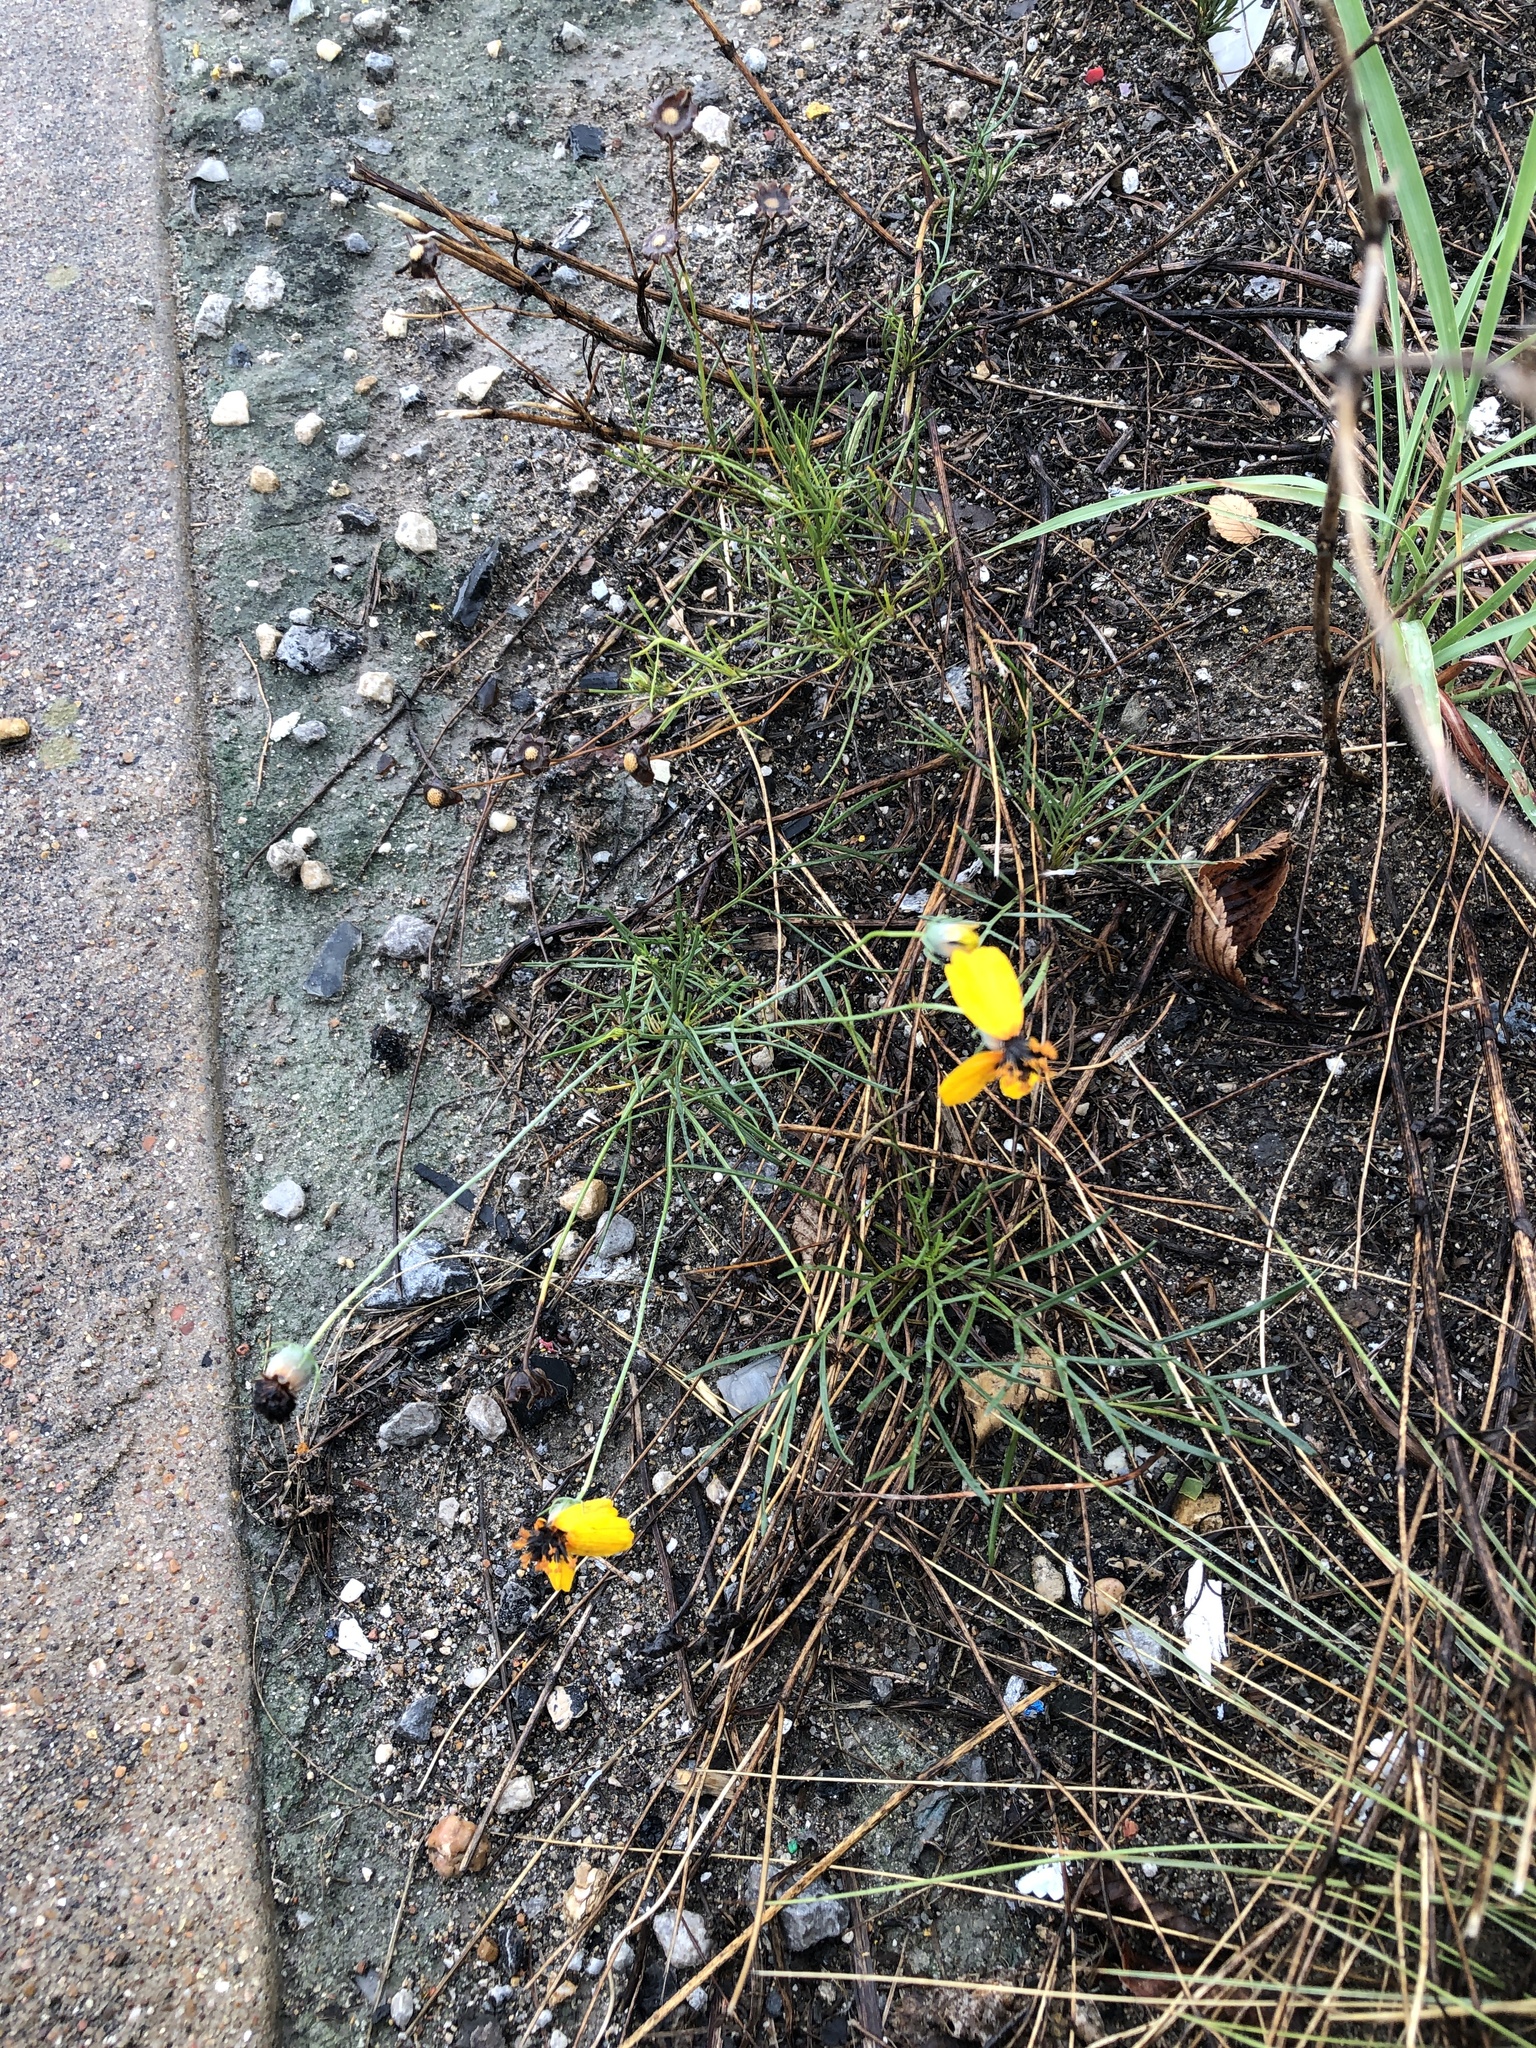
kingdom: Plantae
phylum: Tracheophyta
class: Magnoliopsida
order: Asterales
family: Asteraceae
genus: Thelesperma
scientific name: Thelesperma filifolium
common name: Stiff greenthread
